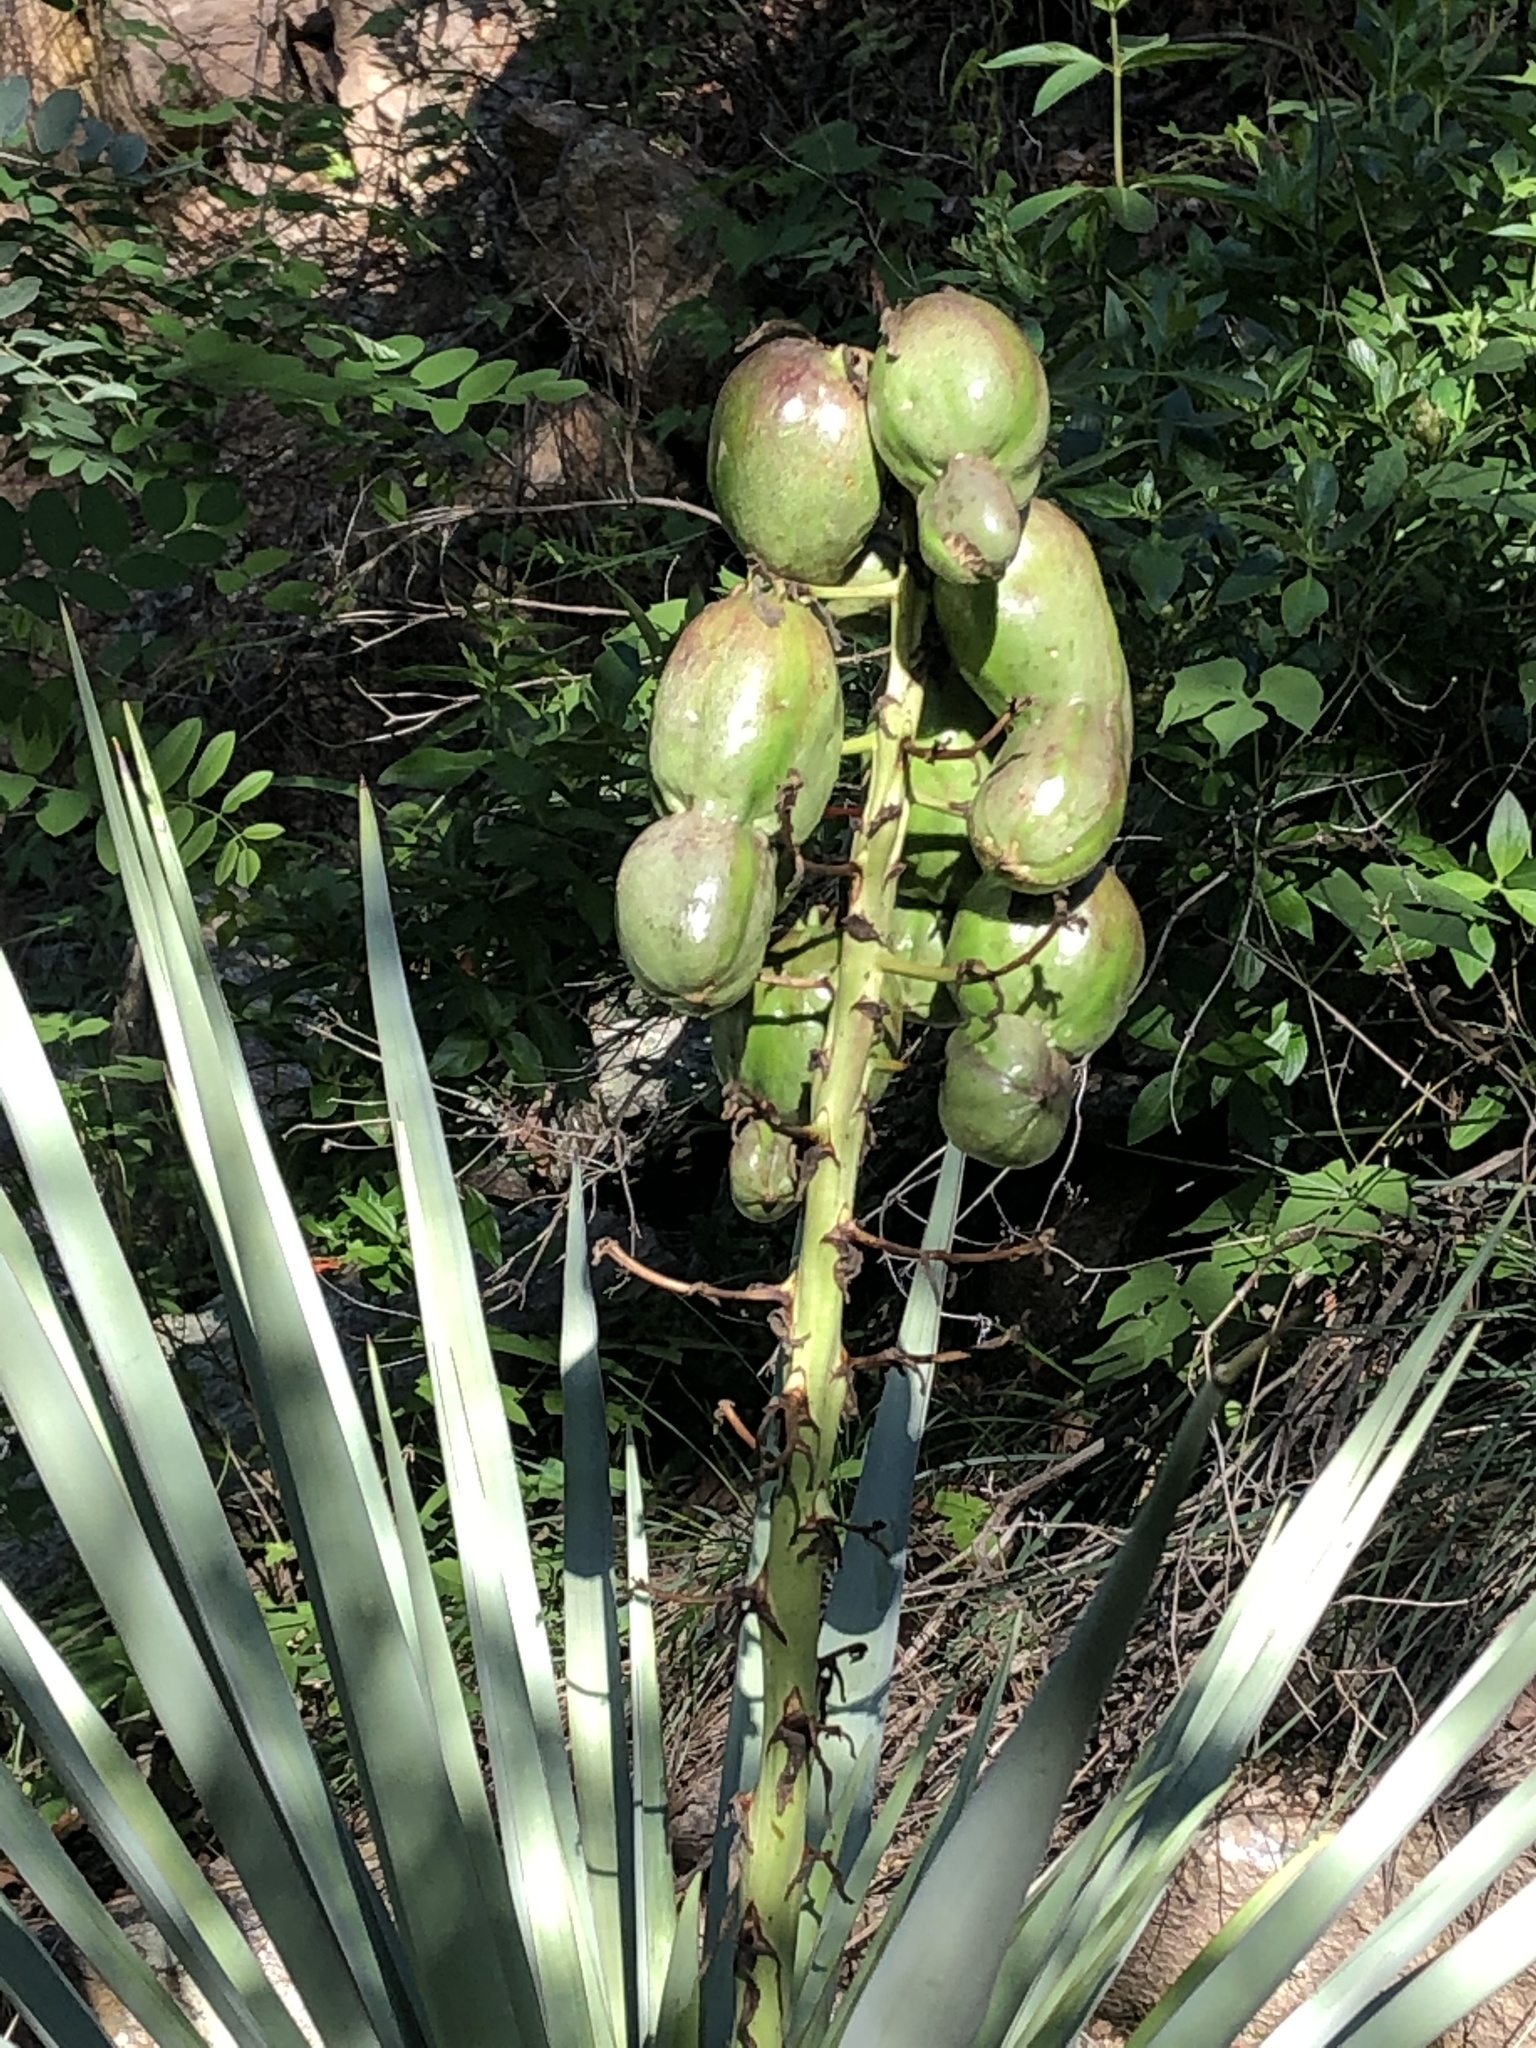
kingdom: Plantae
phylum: Tracheophyta
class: Liliopsida
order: Asparagales
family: Asparagaceae
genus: Yucca
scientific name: Yucca madrensis
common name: Hoary yucca
